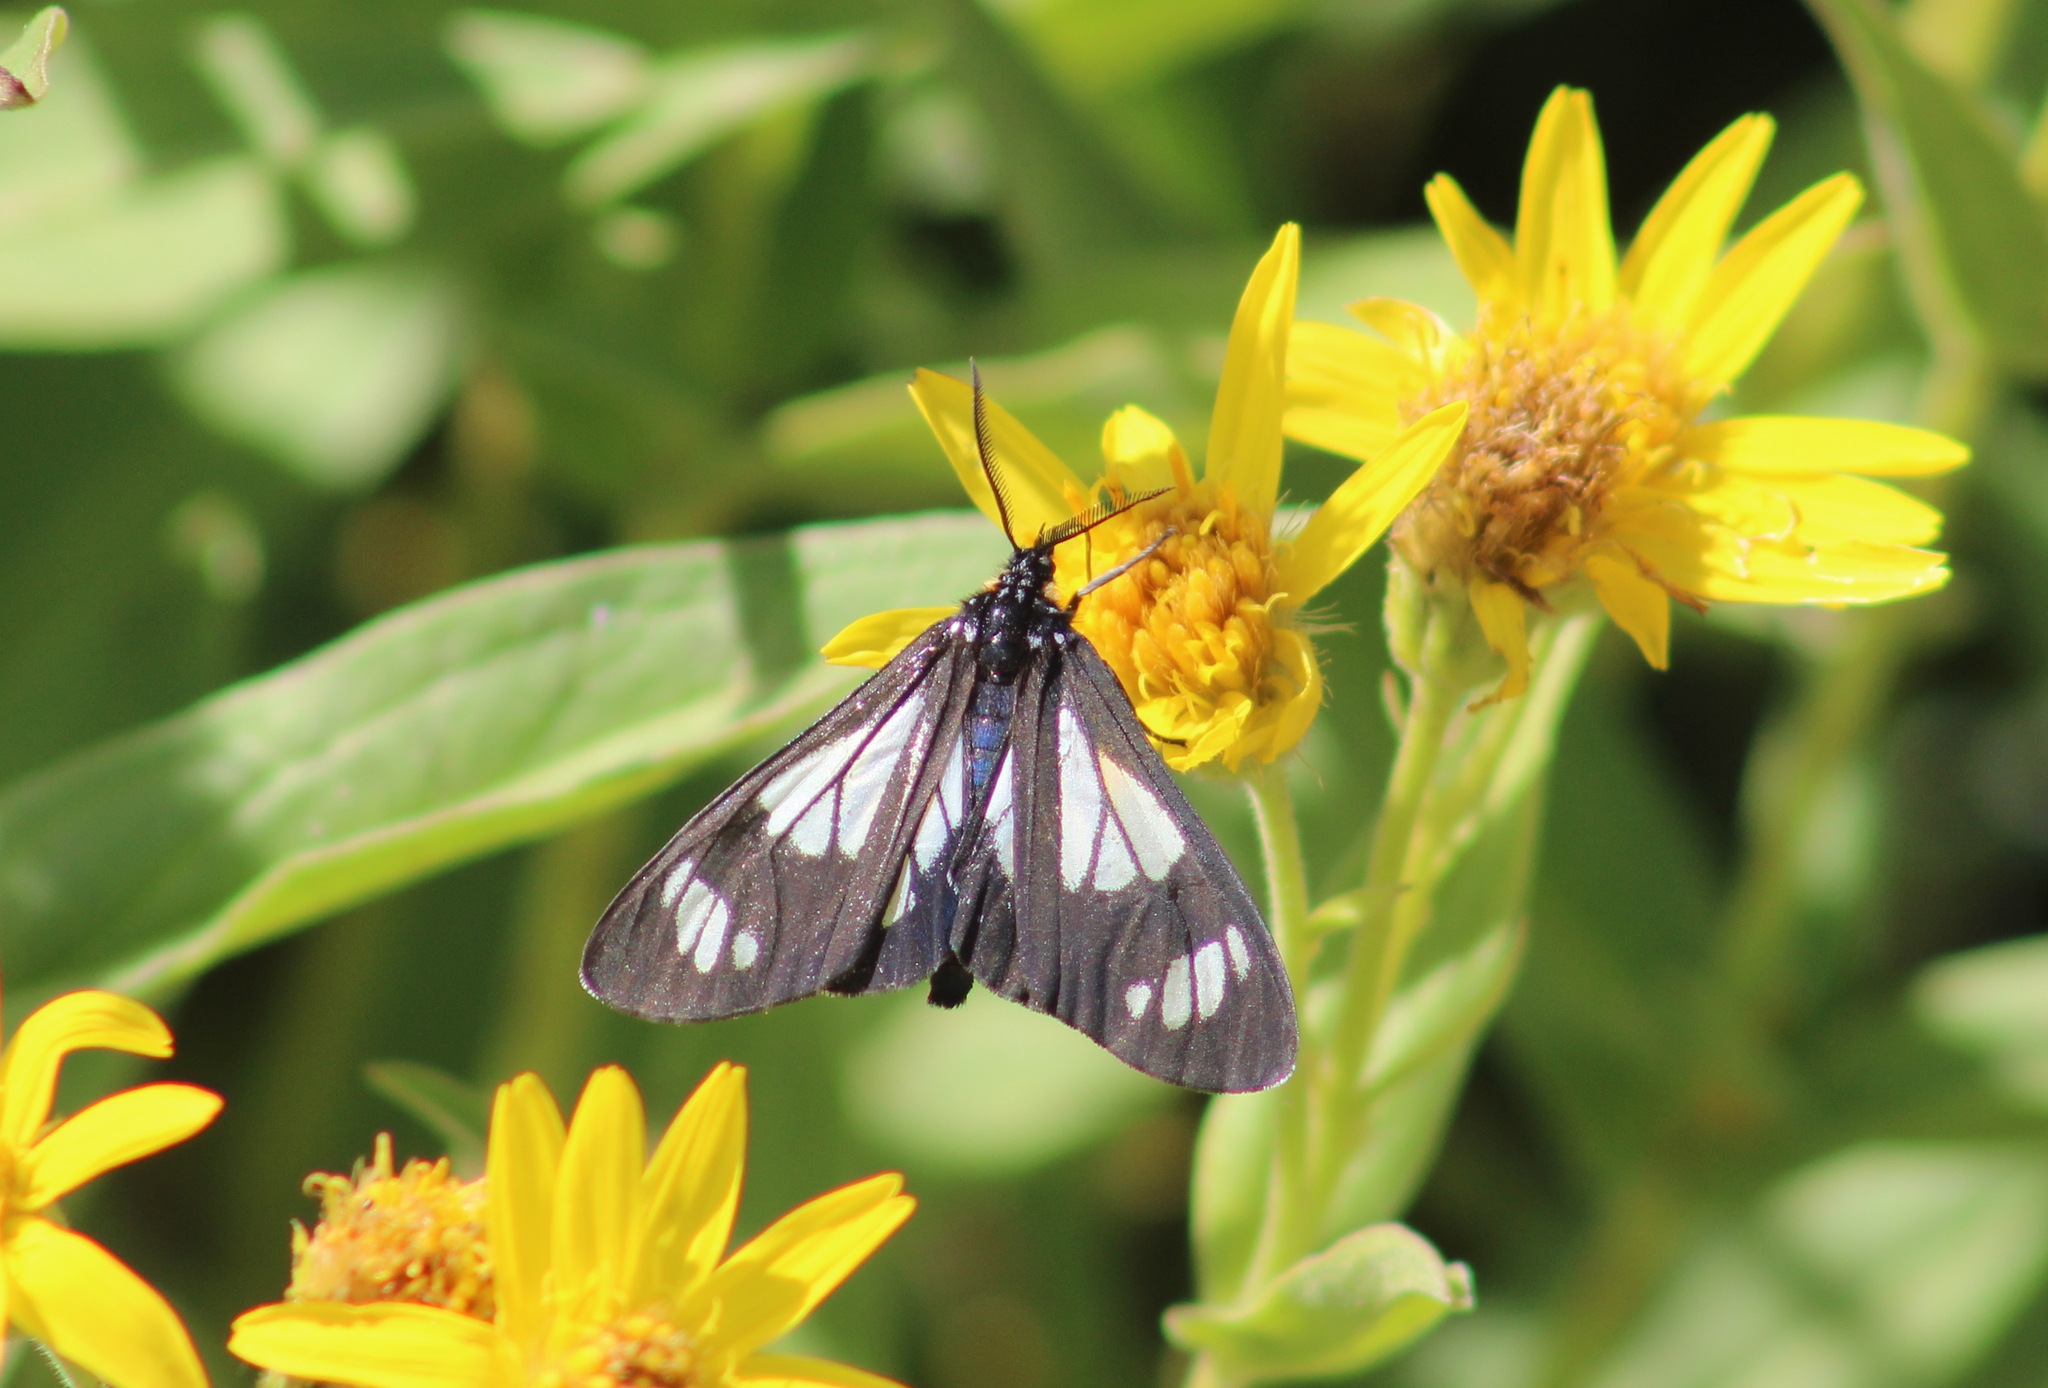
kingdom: Animalia
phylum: Arthropoda
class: Insecta
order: Lepidoptera
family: Erebidae
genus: Gnophaela
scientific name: Gnophaela vermiculata
